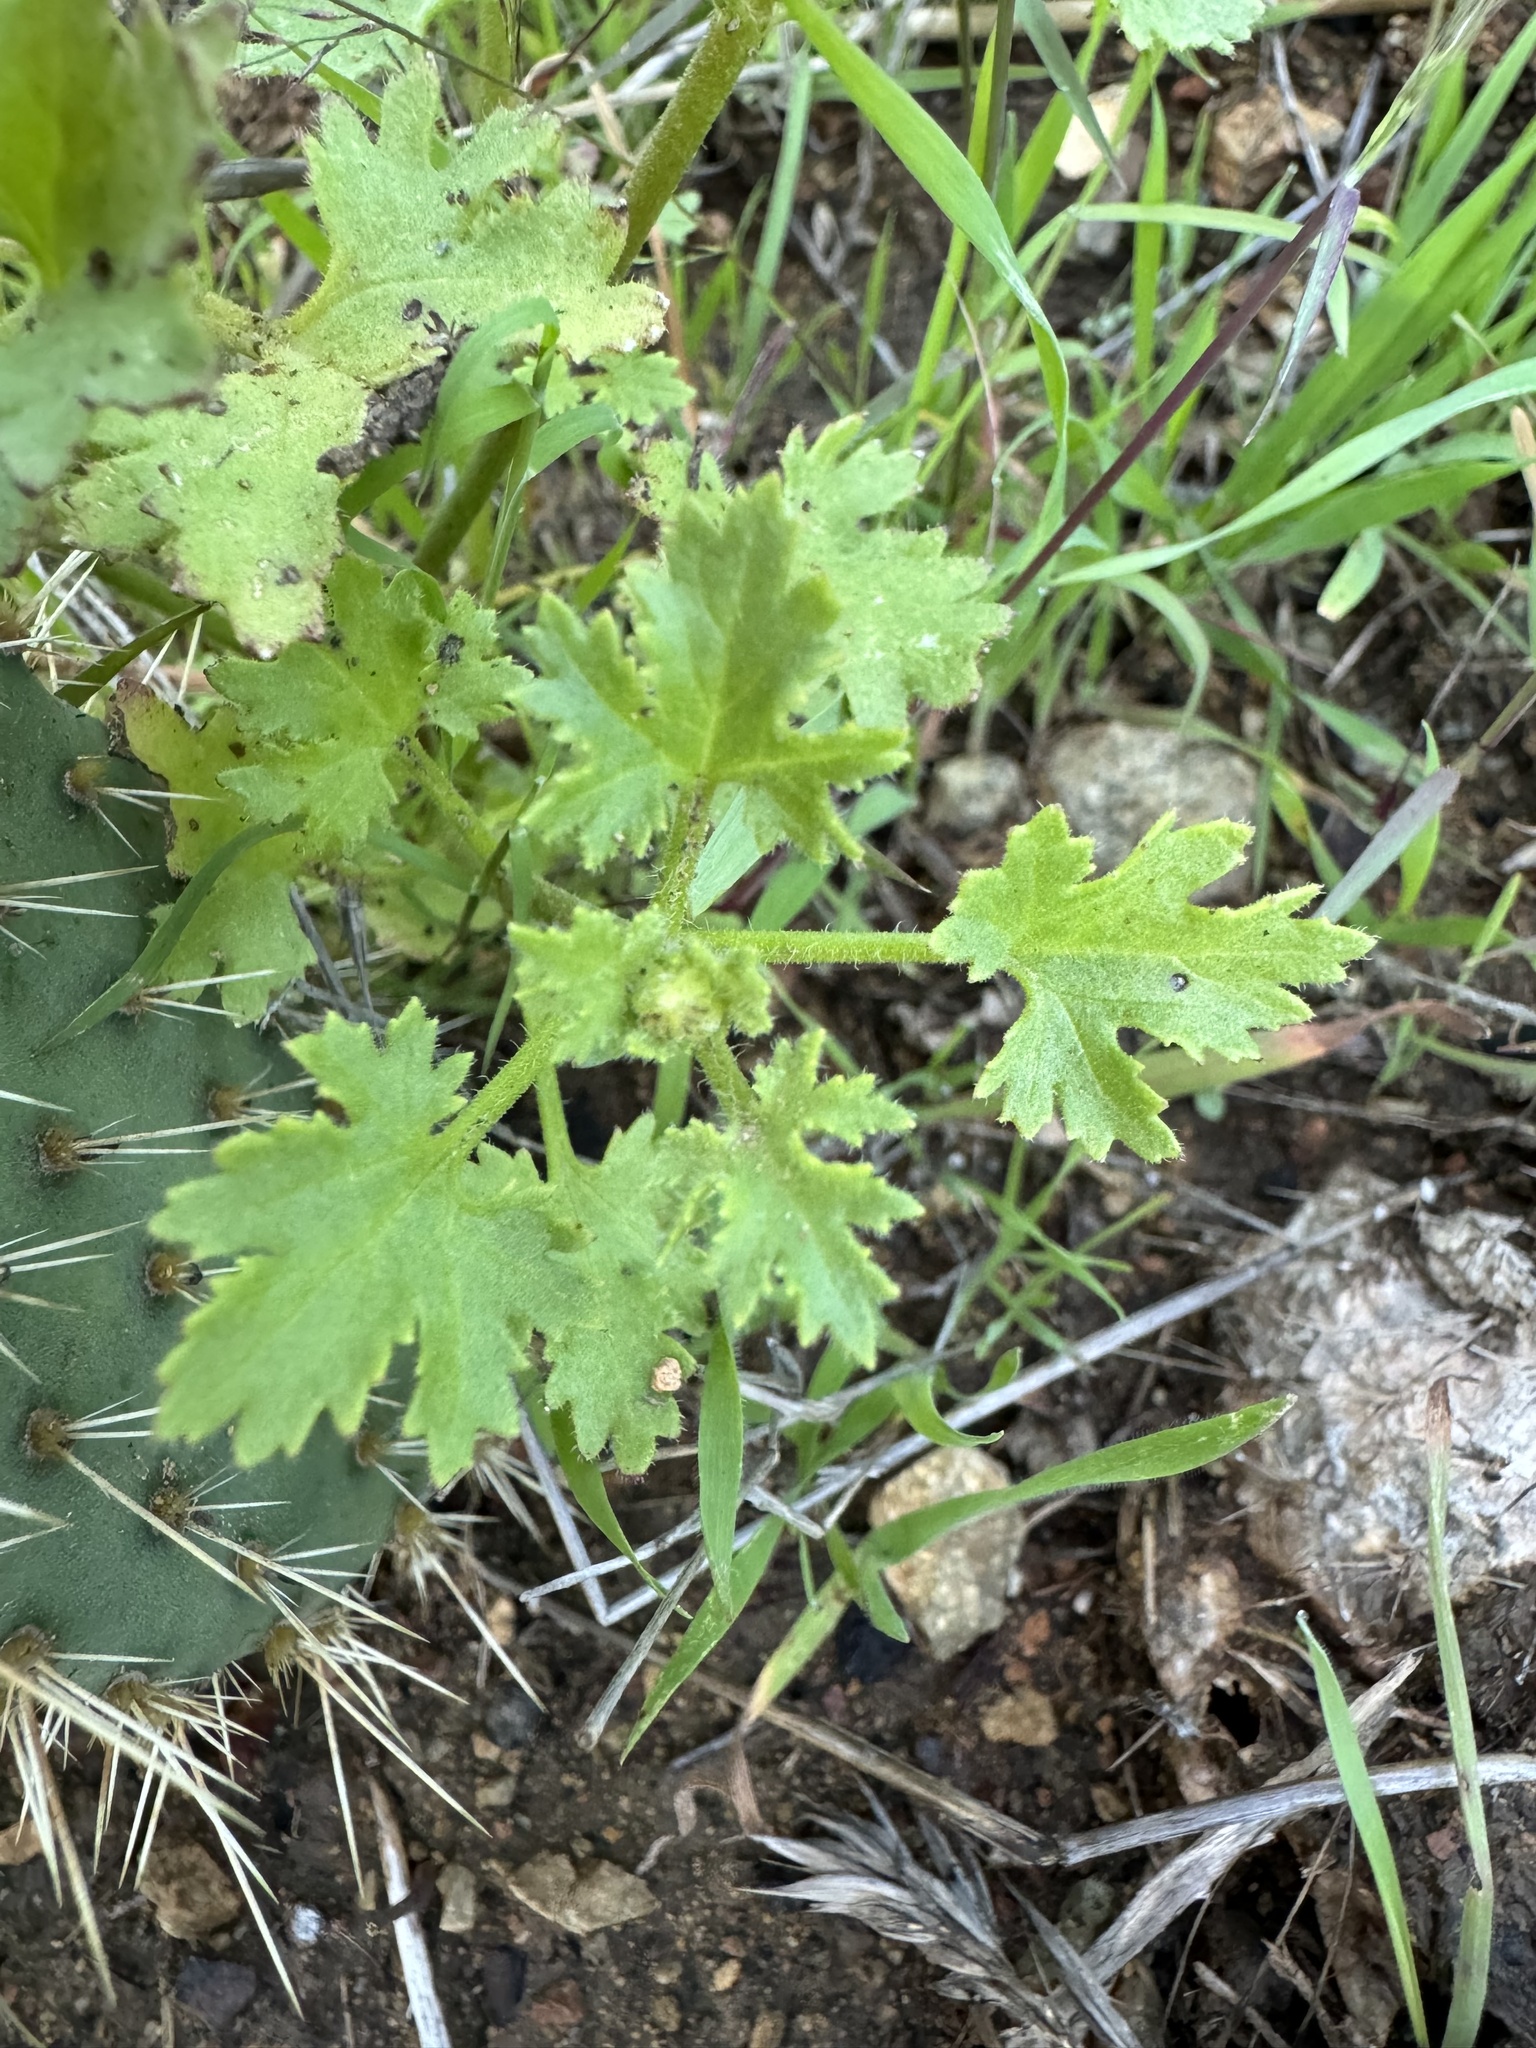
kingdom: Plantae
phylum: Tracheophyta
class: Magnoliopsida
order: Asterales
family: Asteraceae
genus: Laphamia
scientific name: Laphamia emoryi
